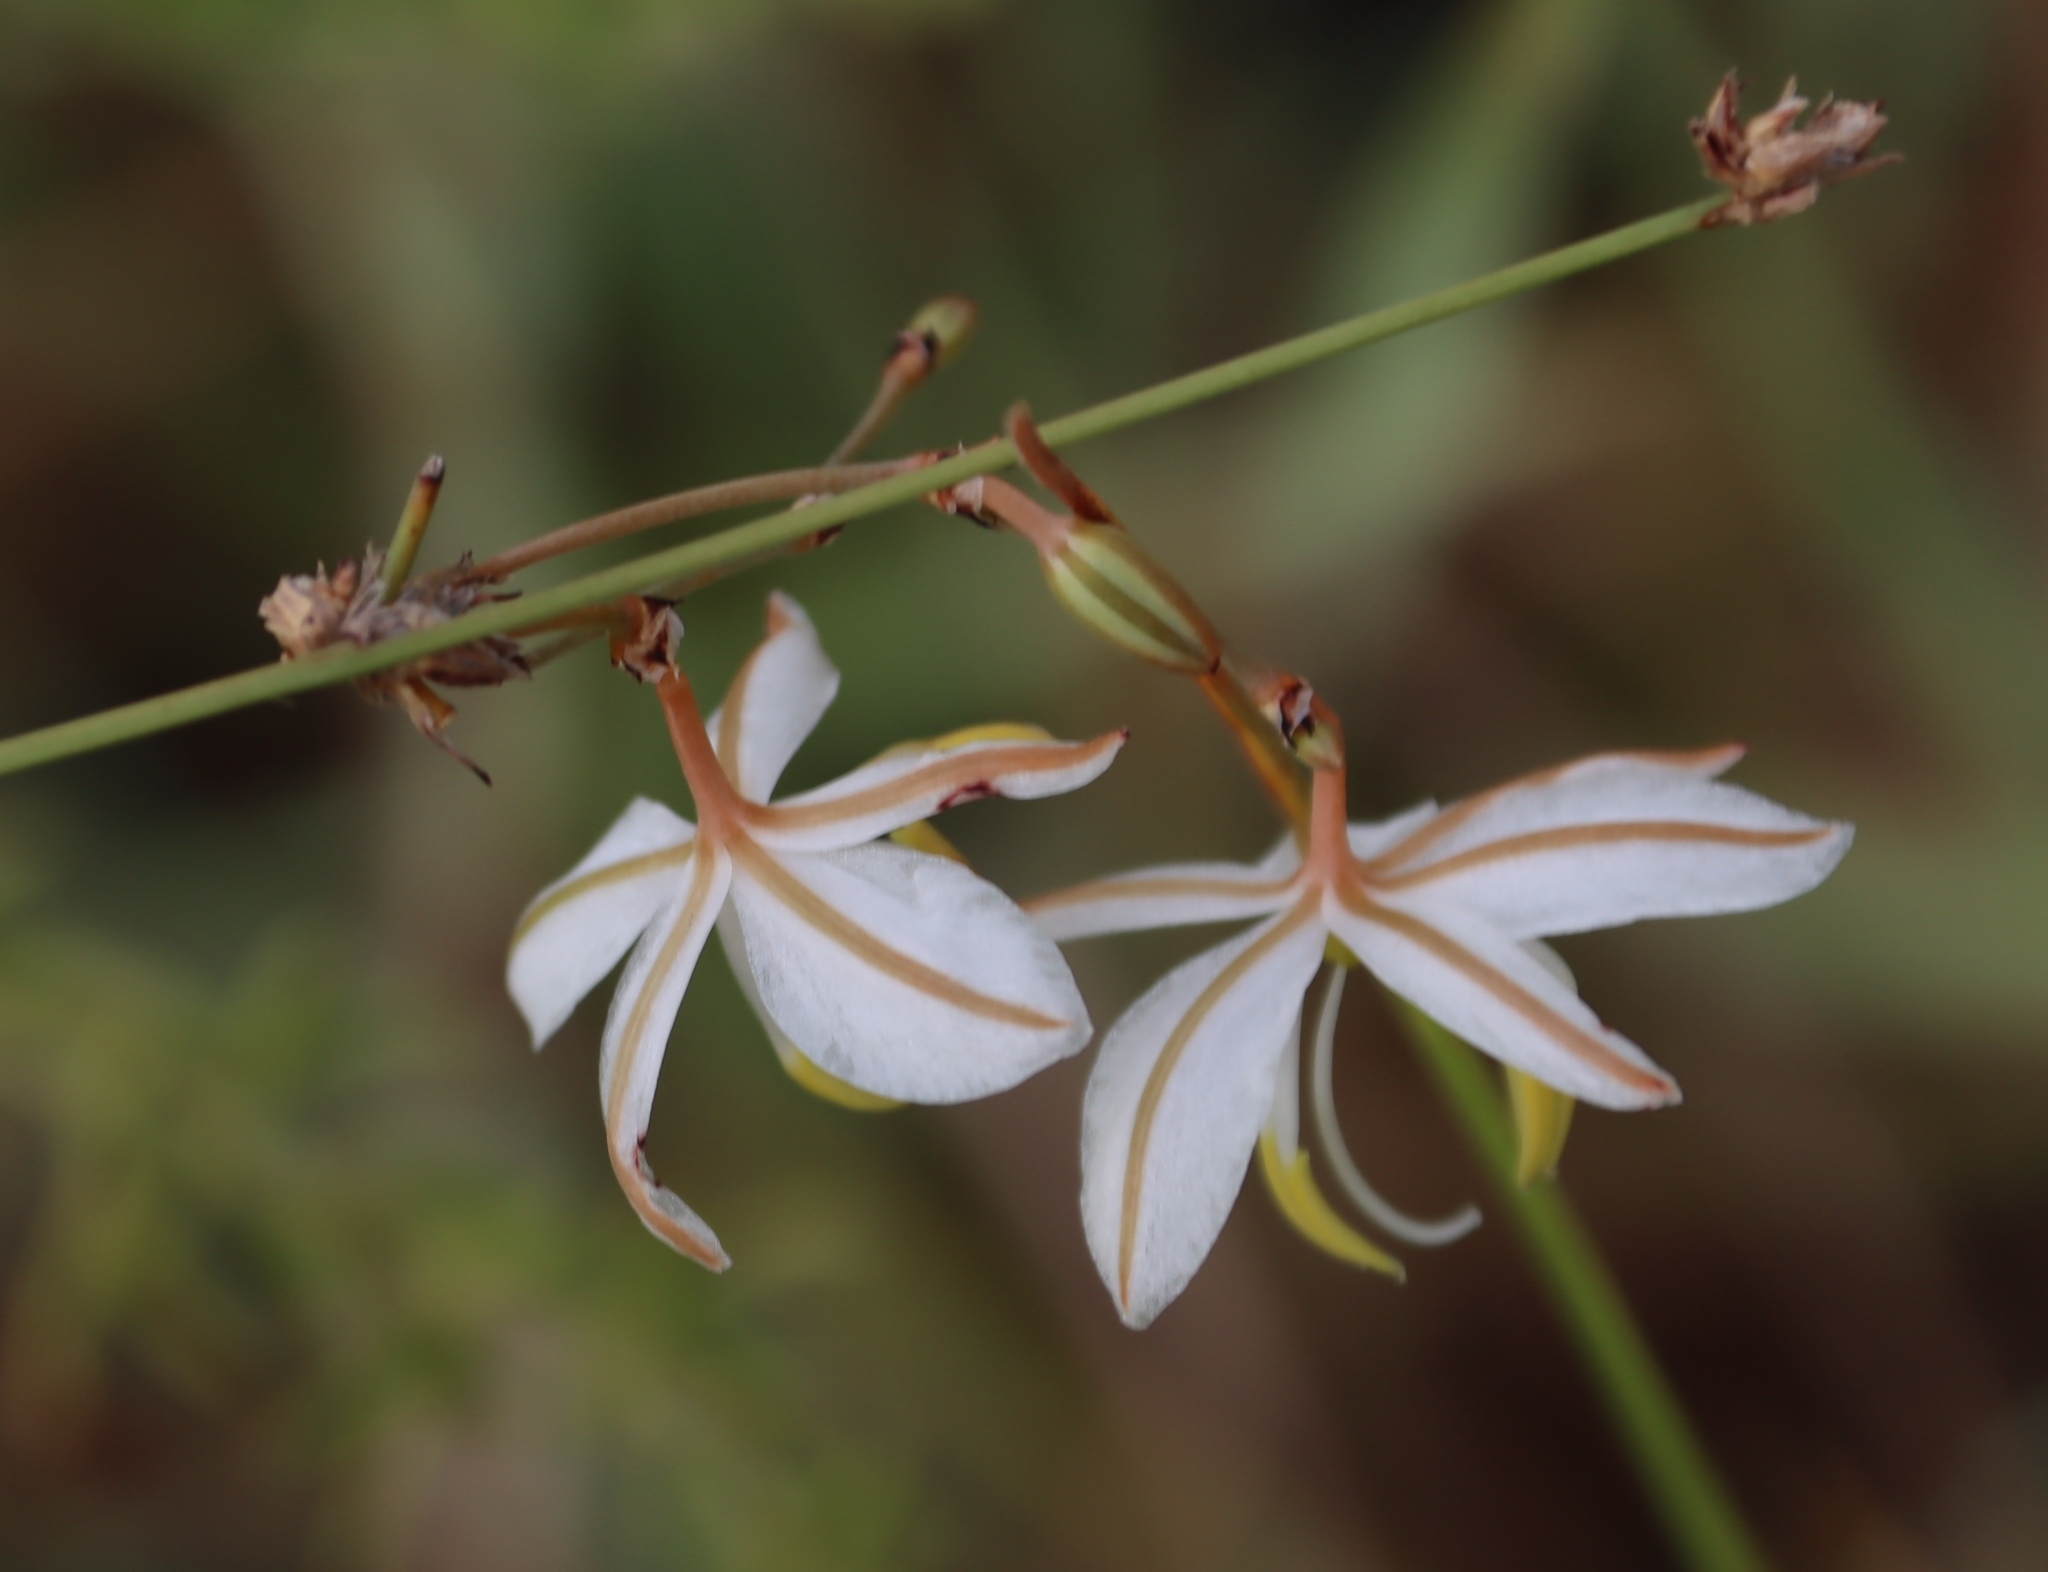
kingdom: Plantae
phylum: Tracheophyta
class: Liliopsida
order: Asparagales
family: Asparagaceae
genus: Chlorophytum
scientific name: Chlorophytum cooperi
